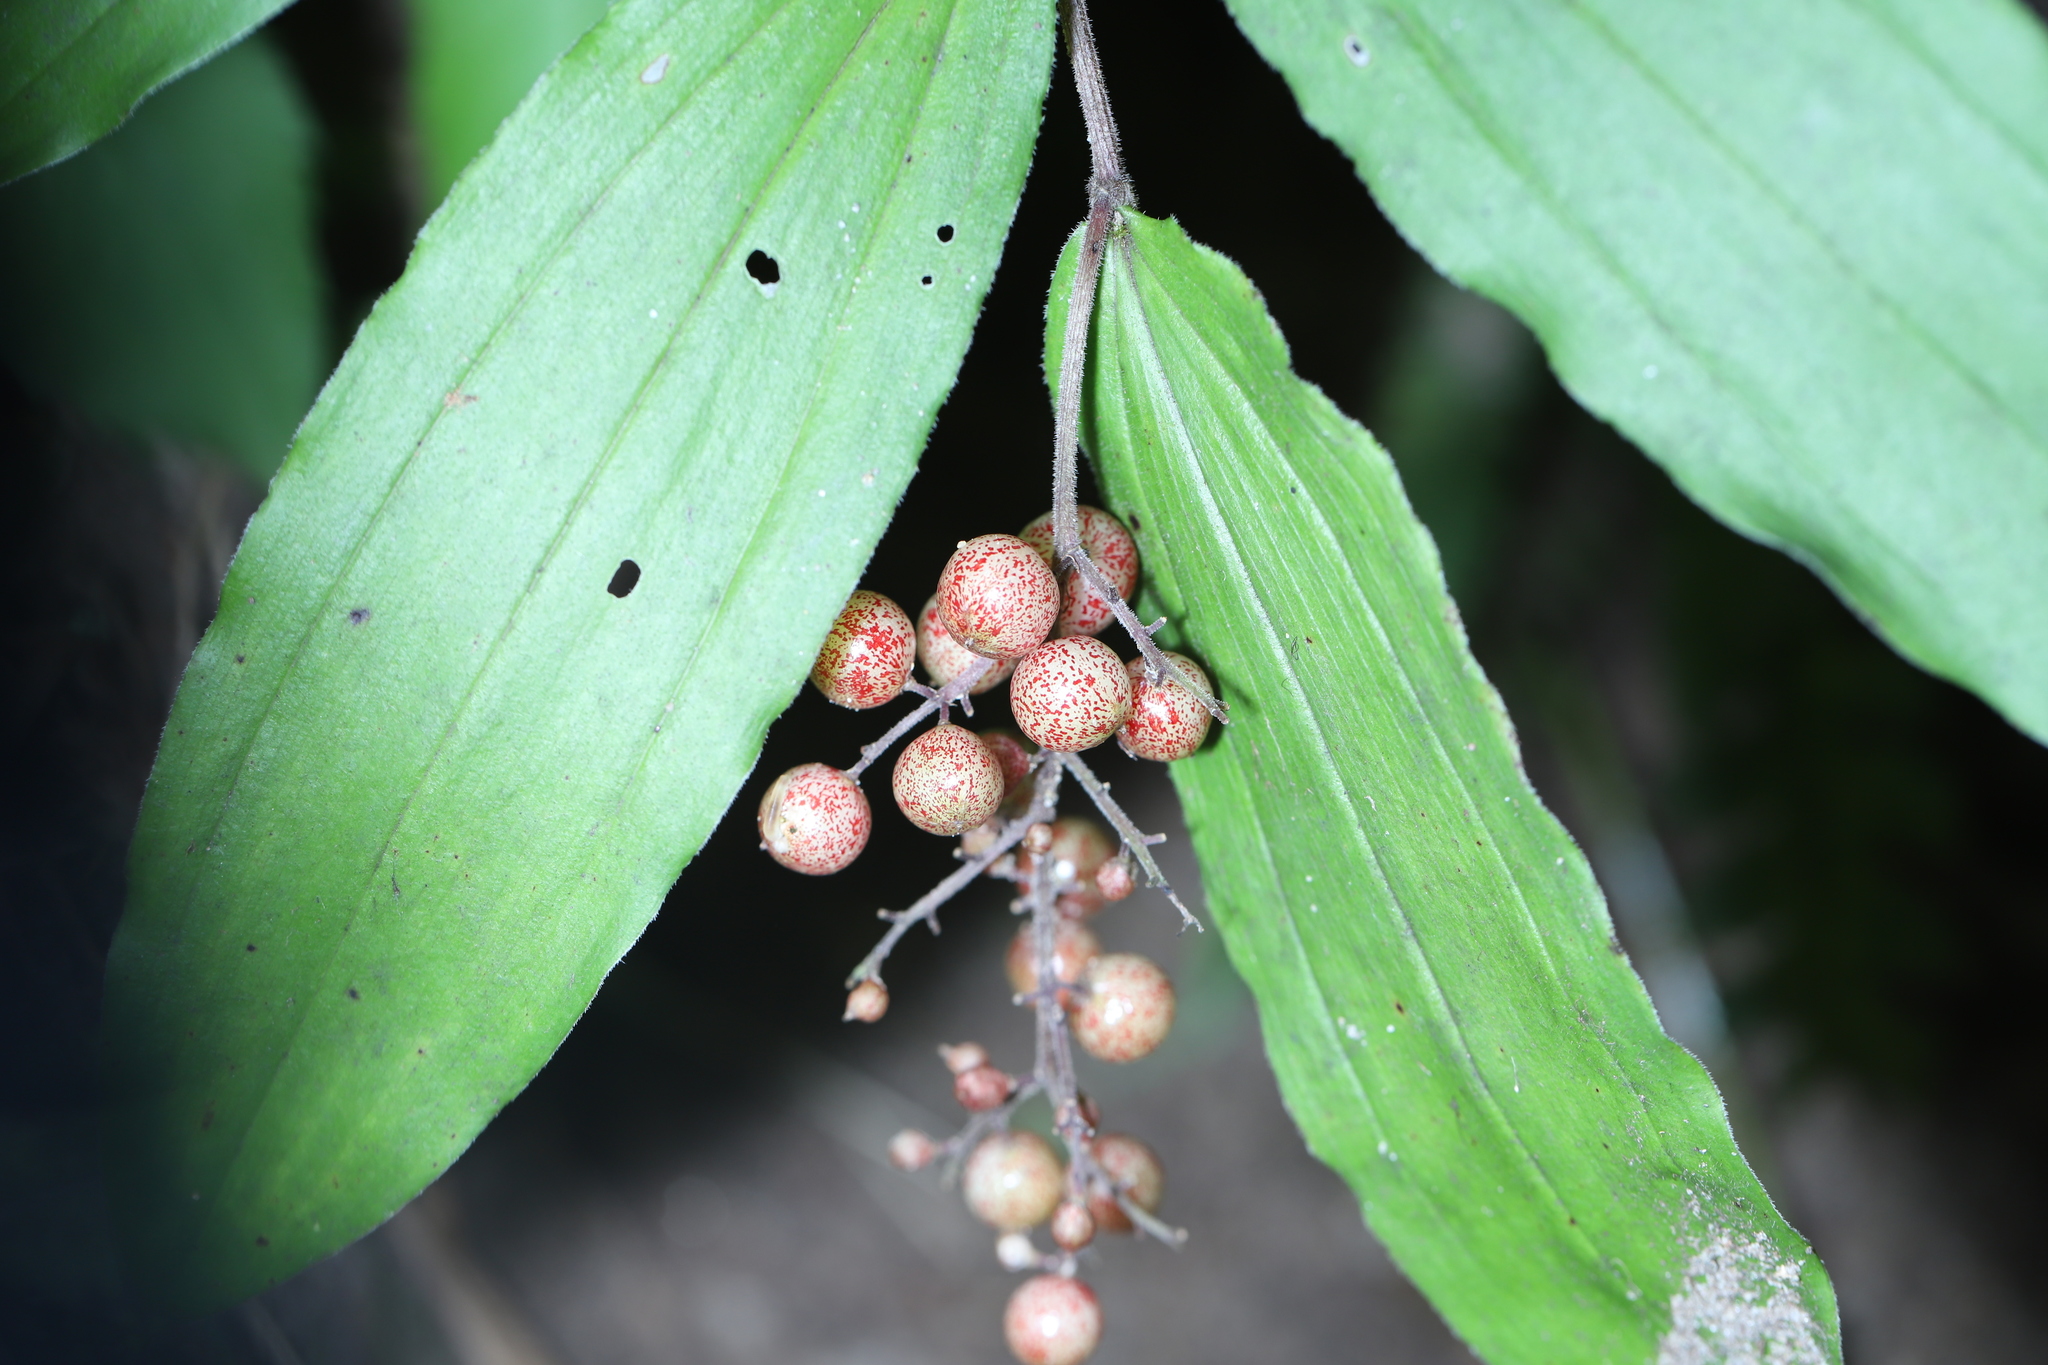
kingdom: Plantae
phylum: Tracheophyta
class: Liliopsida
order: Asparagales
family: Asparagaceae
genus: Maianthemum
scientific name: Maianthemum racemosum
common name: False spikenard
